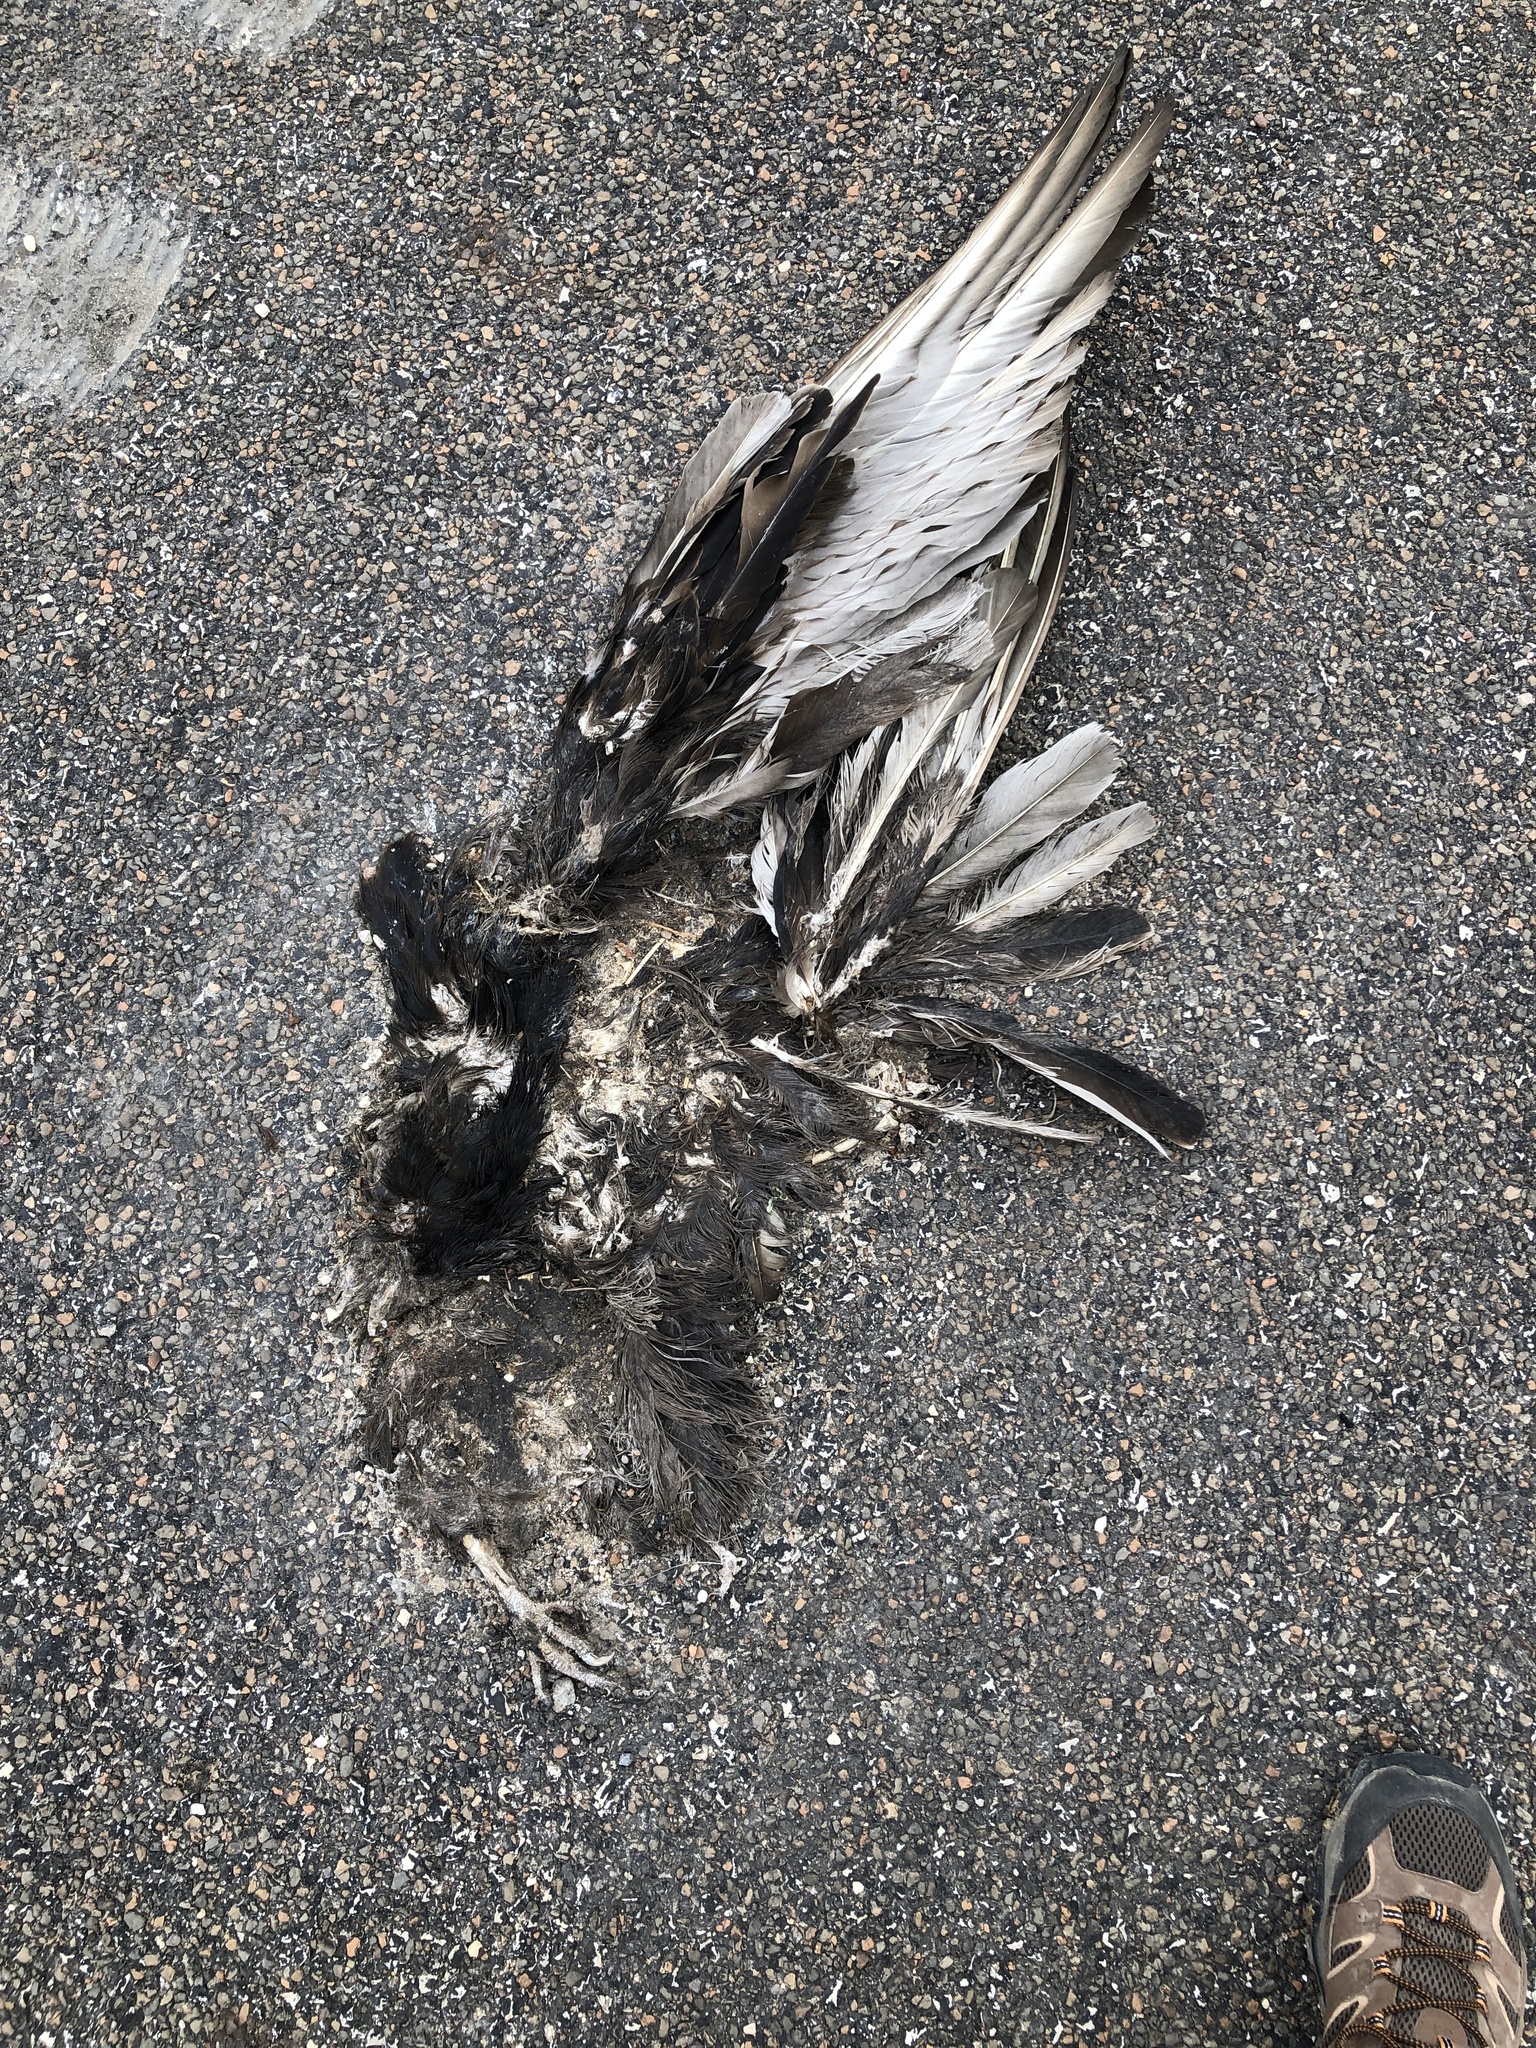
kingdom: Animalia
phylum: Chordata
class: Aves
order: Accipitriformes
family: Cathartidae
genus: Coragyps
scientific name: Coragyps atratus
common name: Black vulture
